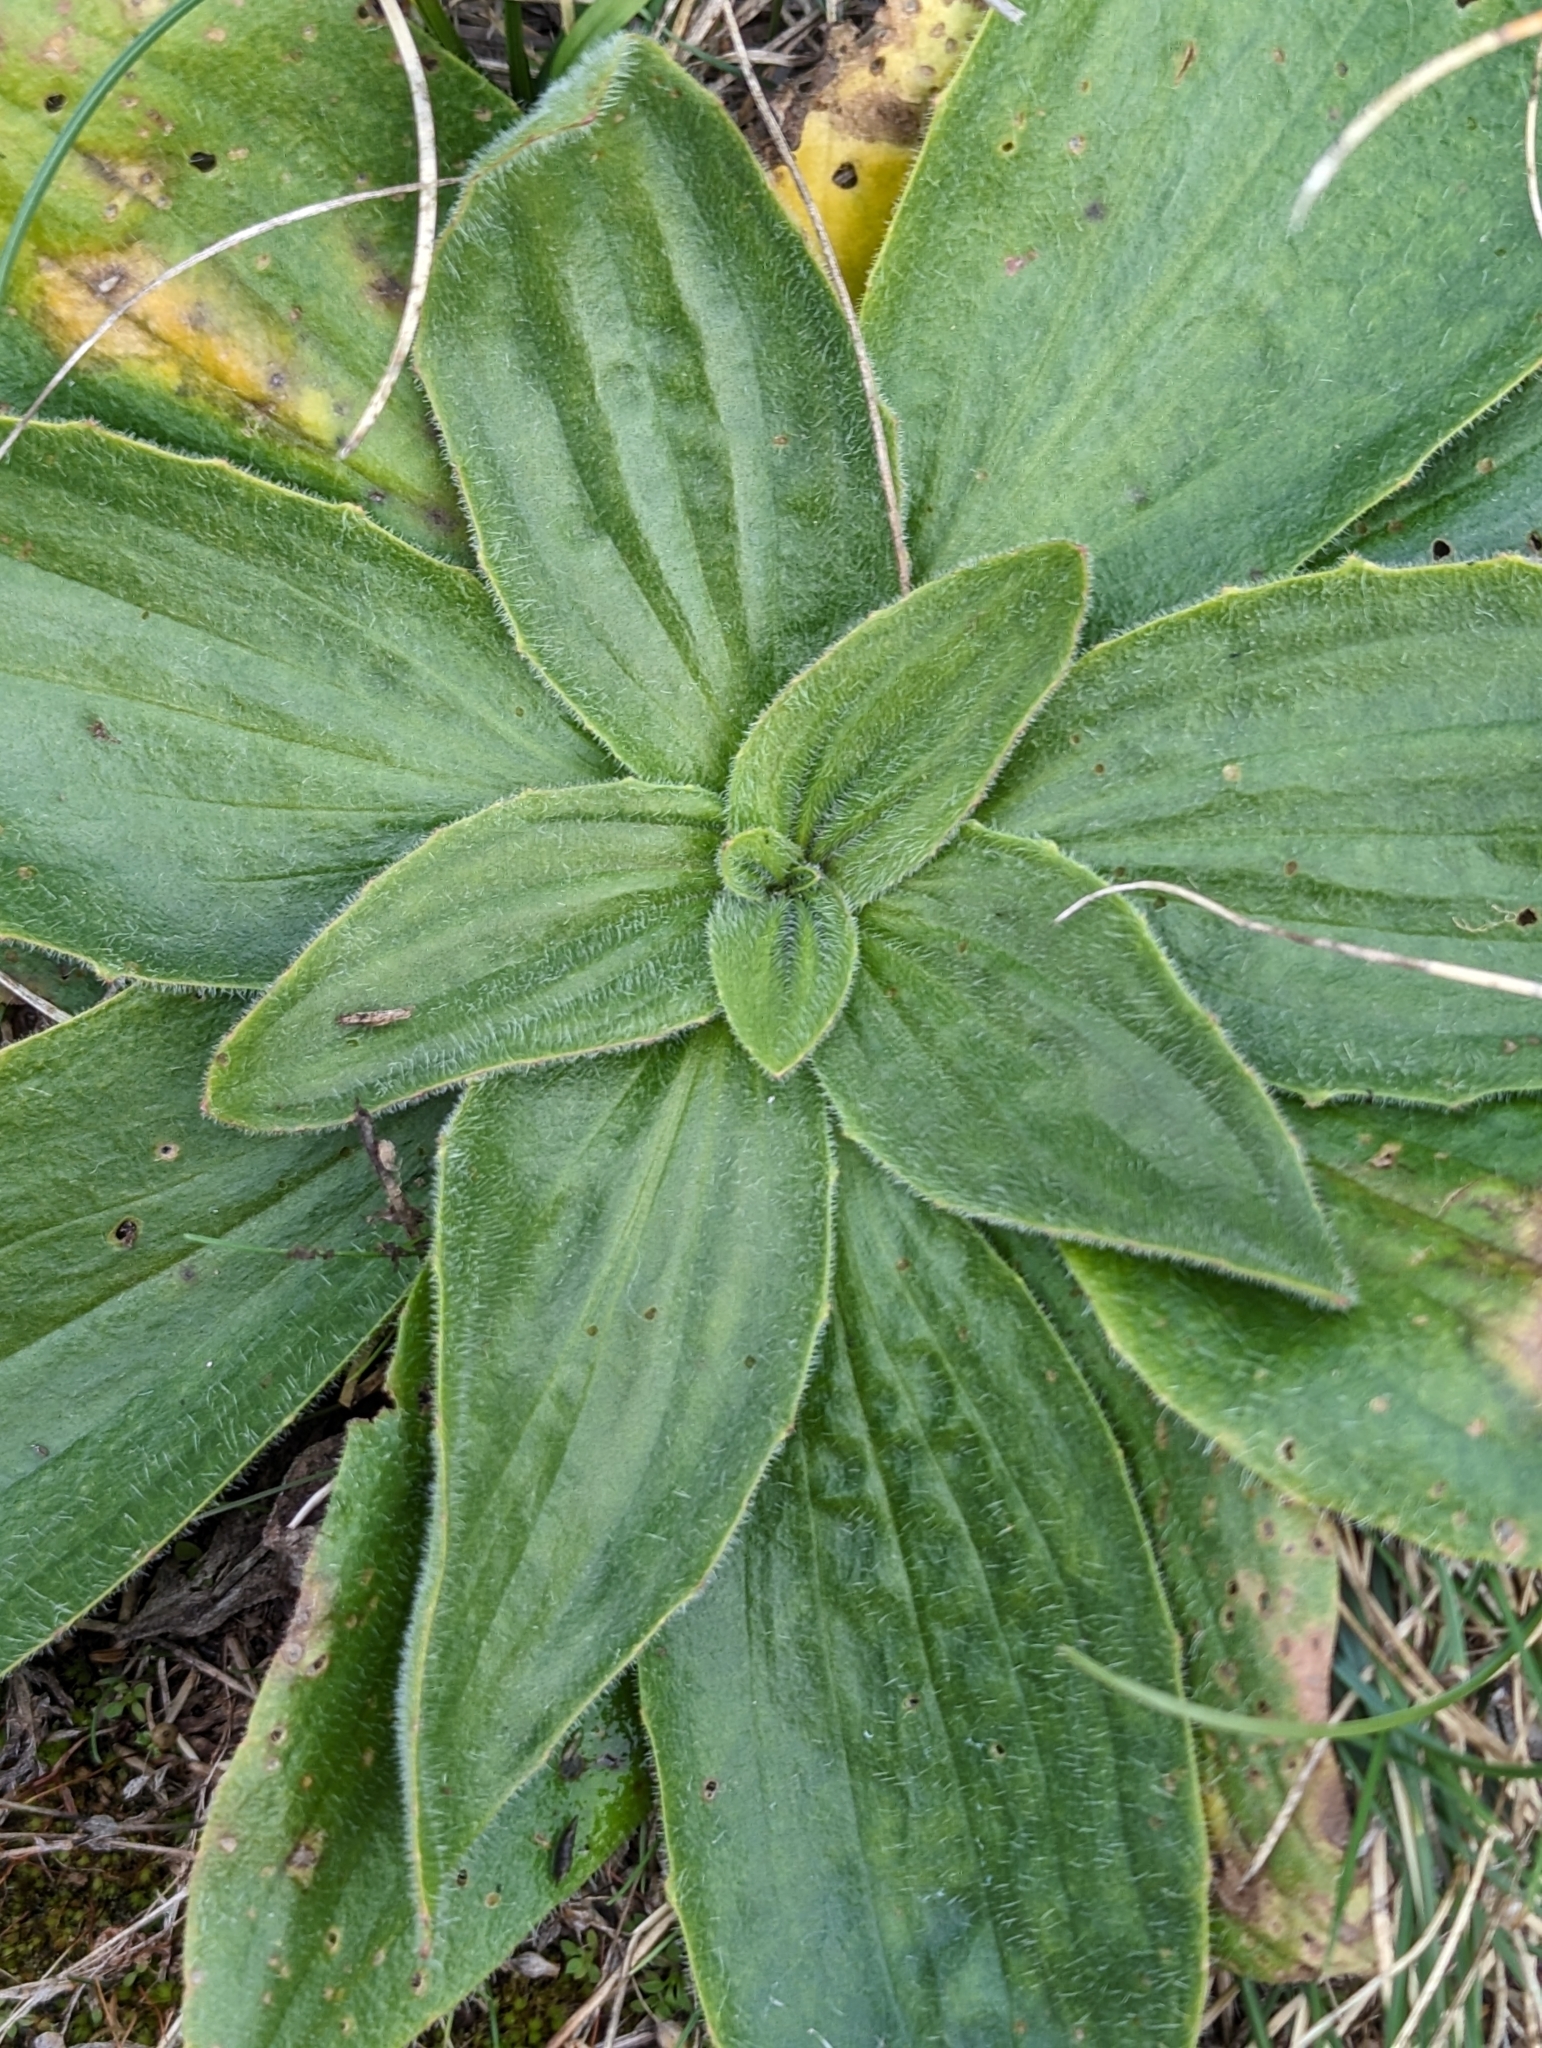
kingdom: Plantae
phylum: Tracheophyta
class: Magnoliopsida
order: Lamiales
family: Plantaginaceae
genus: Plantago
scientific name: Plantago media
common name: Hoary plantain
